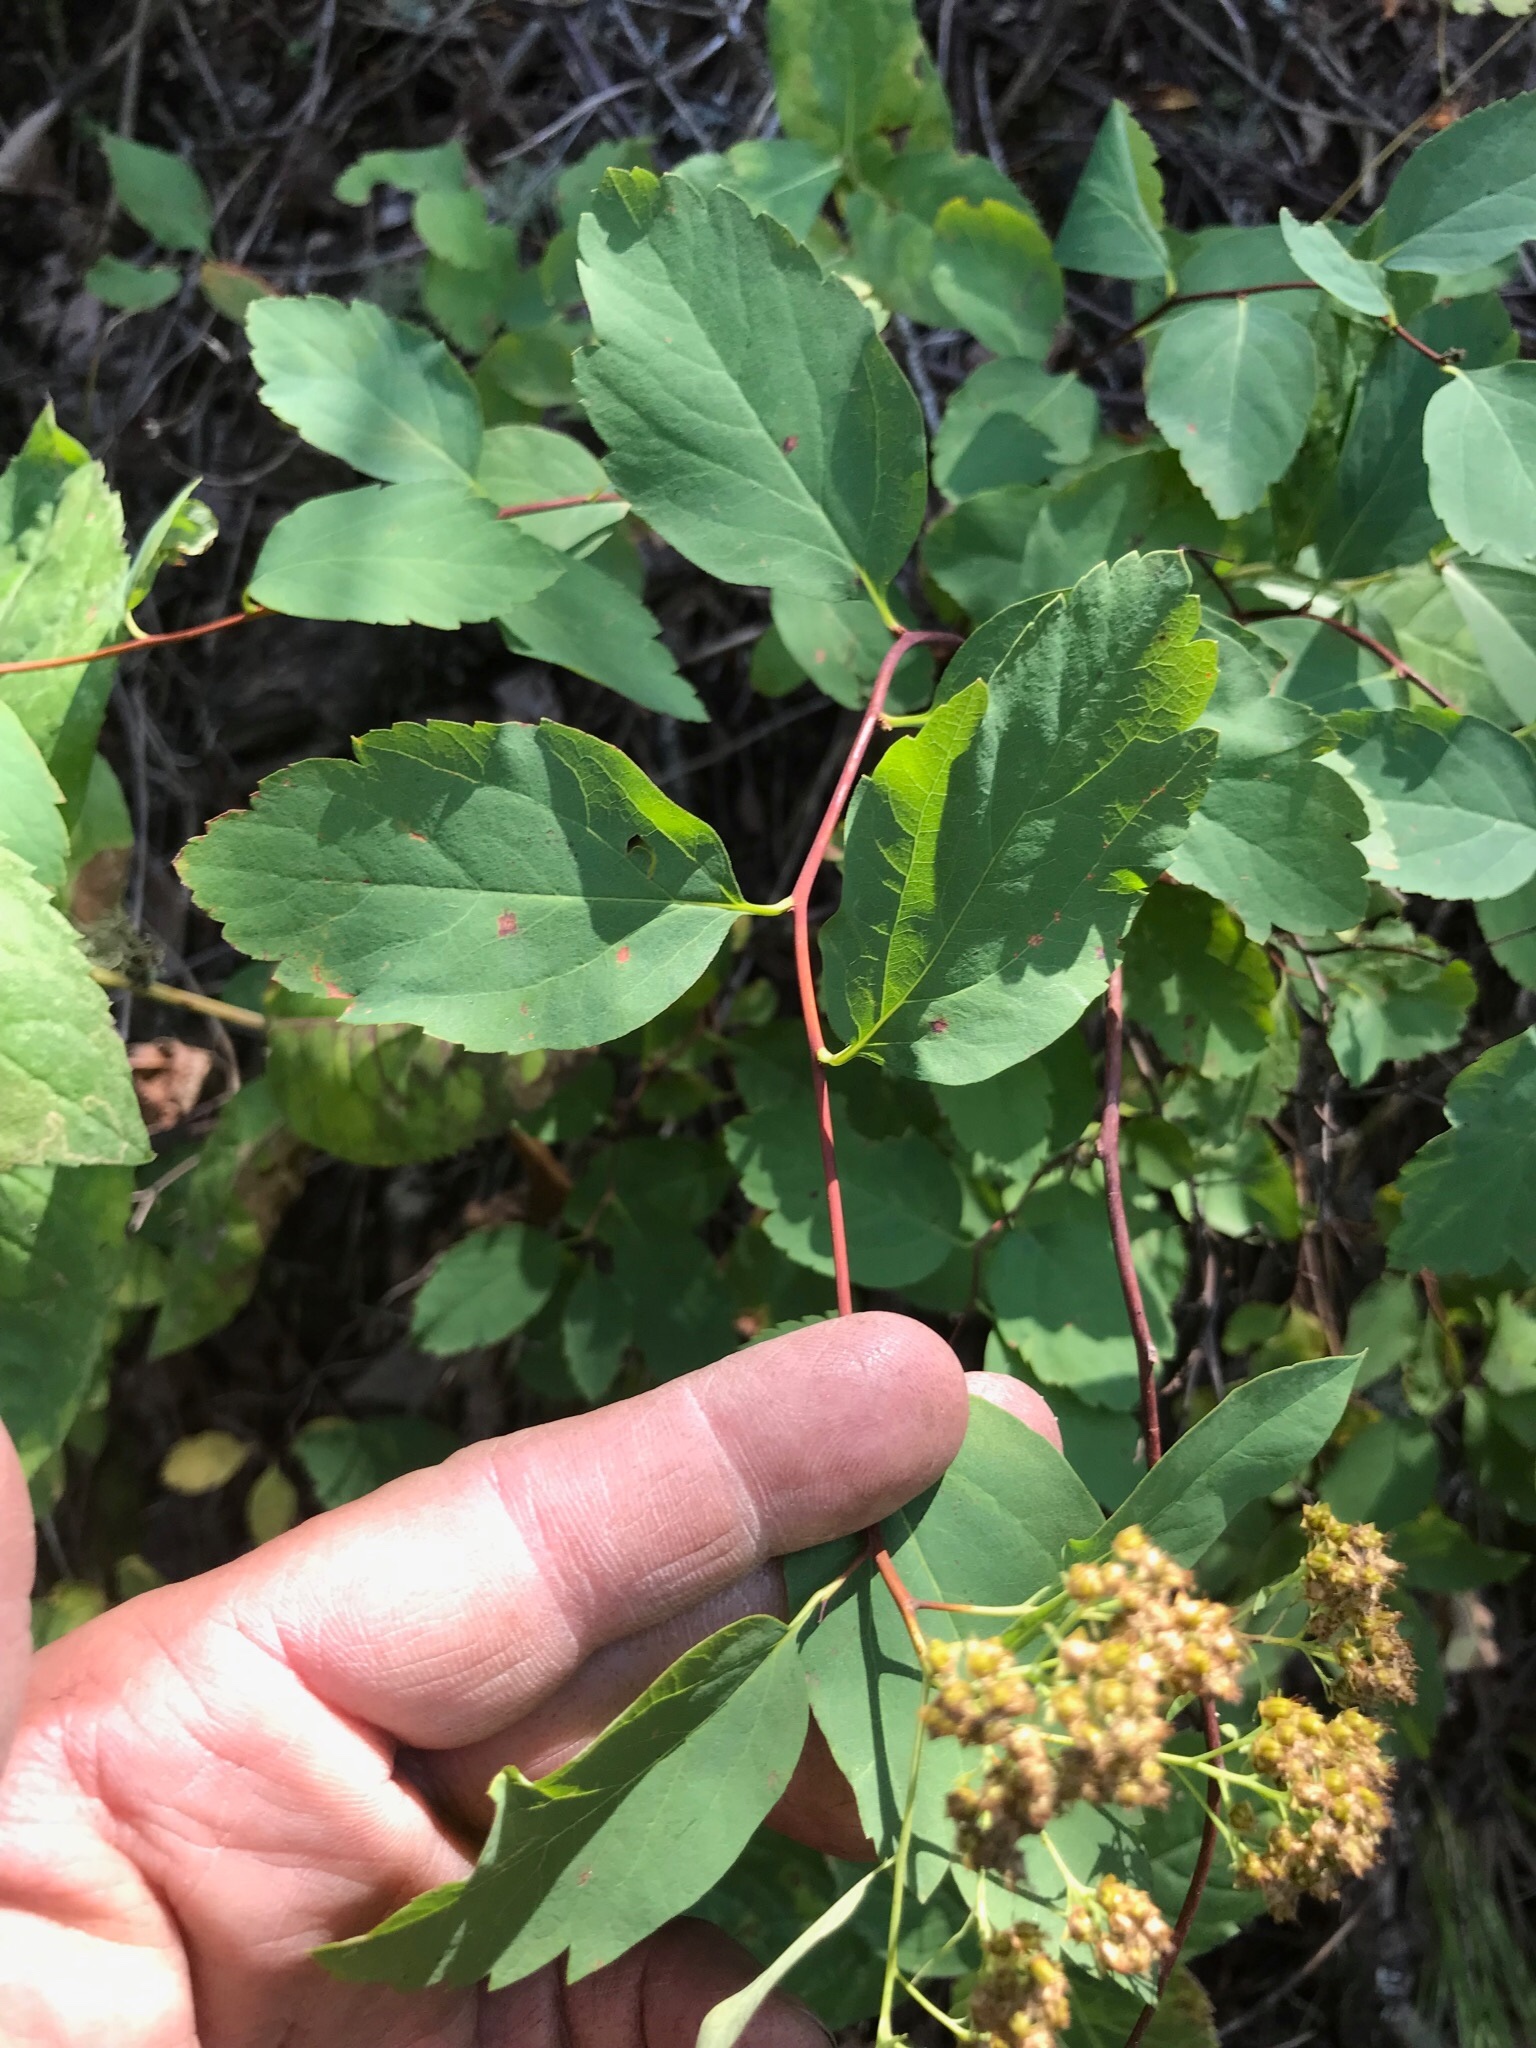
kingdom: Plantae
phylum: Tracheophyta
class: Magnoliopsida
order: Rosales
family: Rosaceae
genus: Spiraea
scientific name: Spiraea lucida
